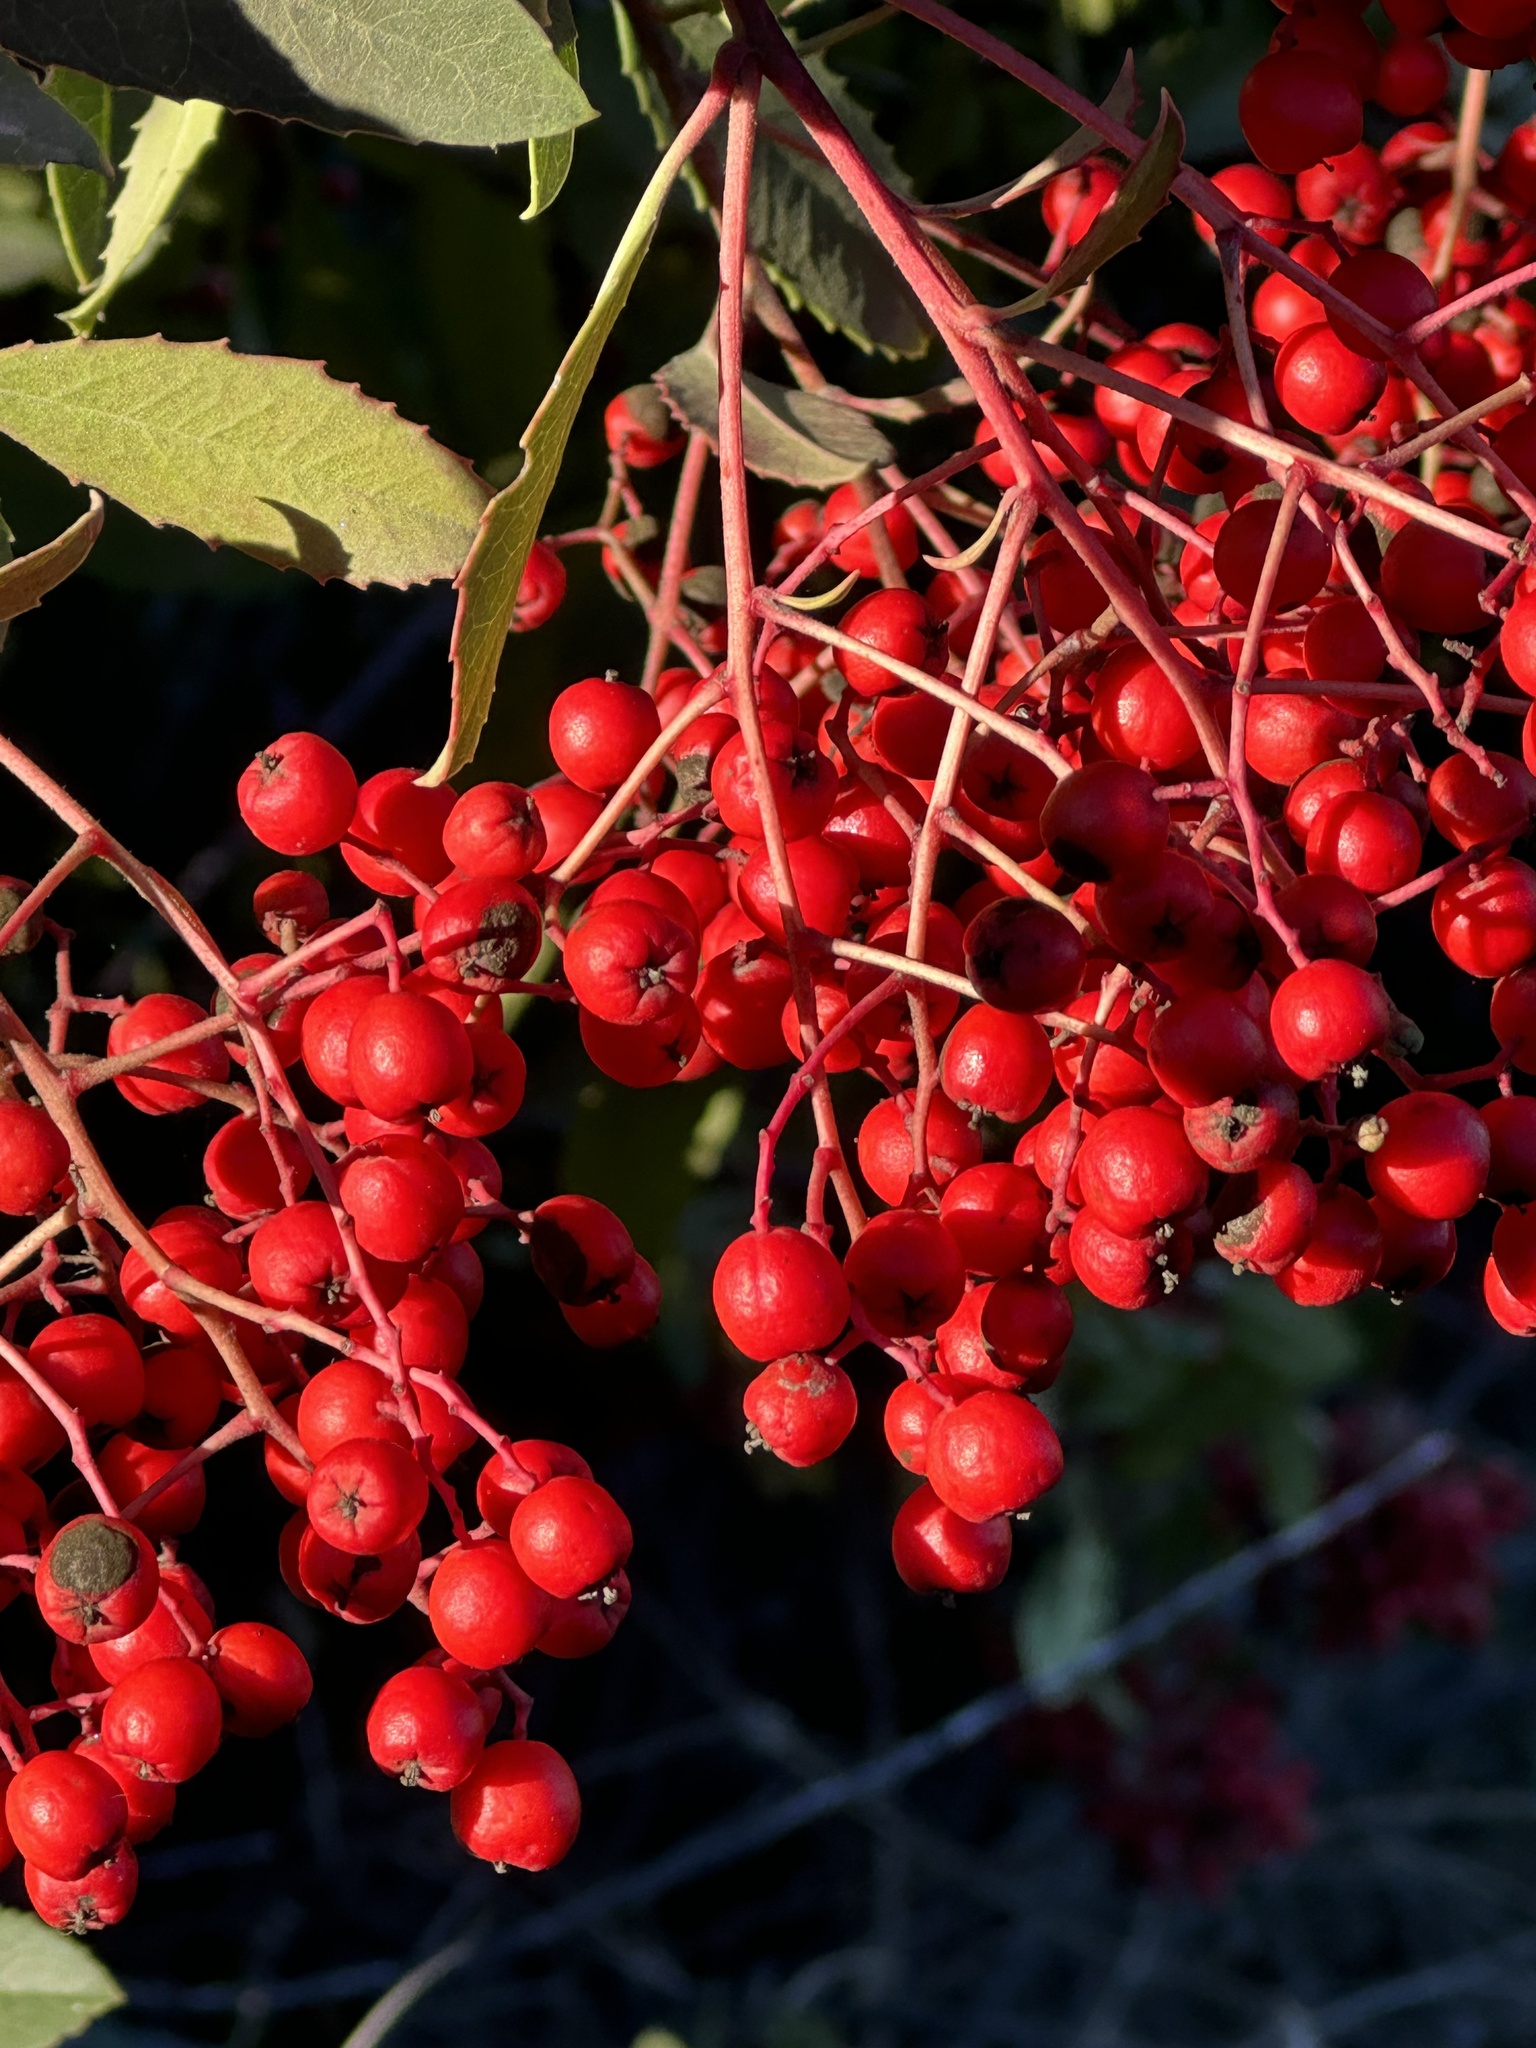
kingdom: Plantae
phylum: Tracheophyta
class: Magnoliopsida
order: Rosales
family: Rosaceae
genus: Heteromeles
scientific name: Heteromeles arbutifolia
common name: California-holly
